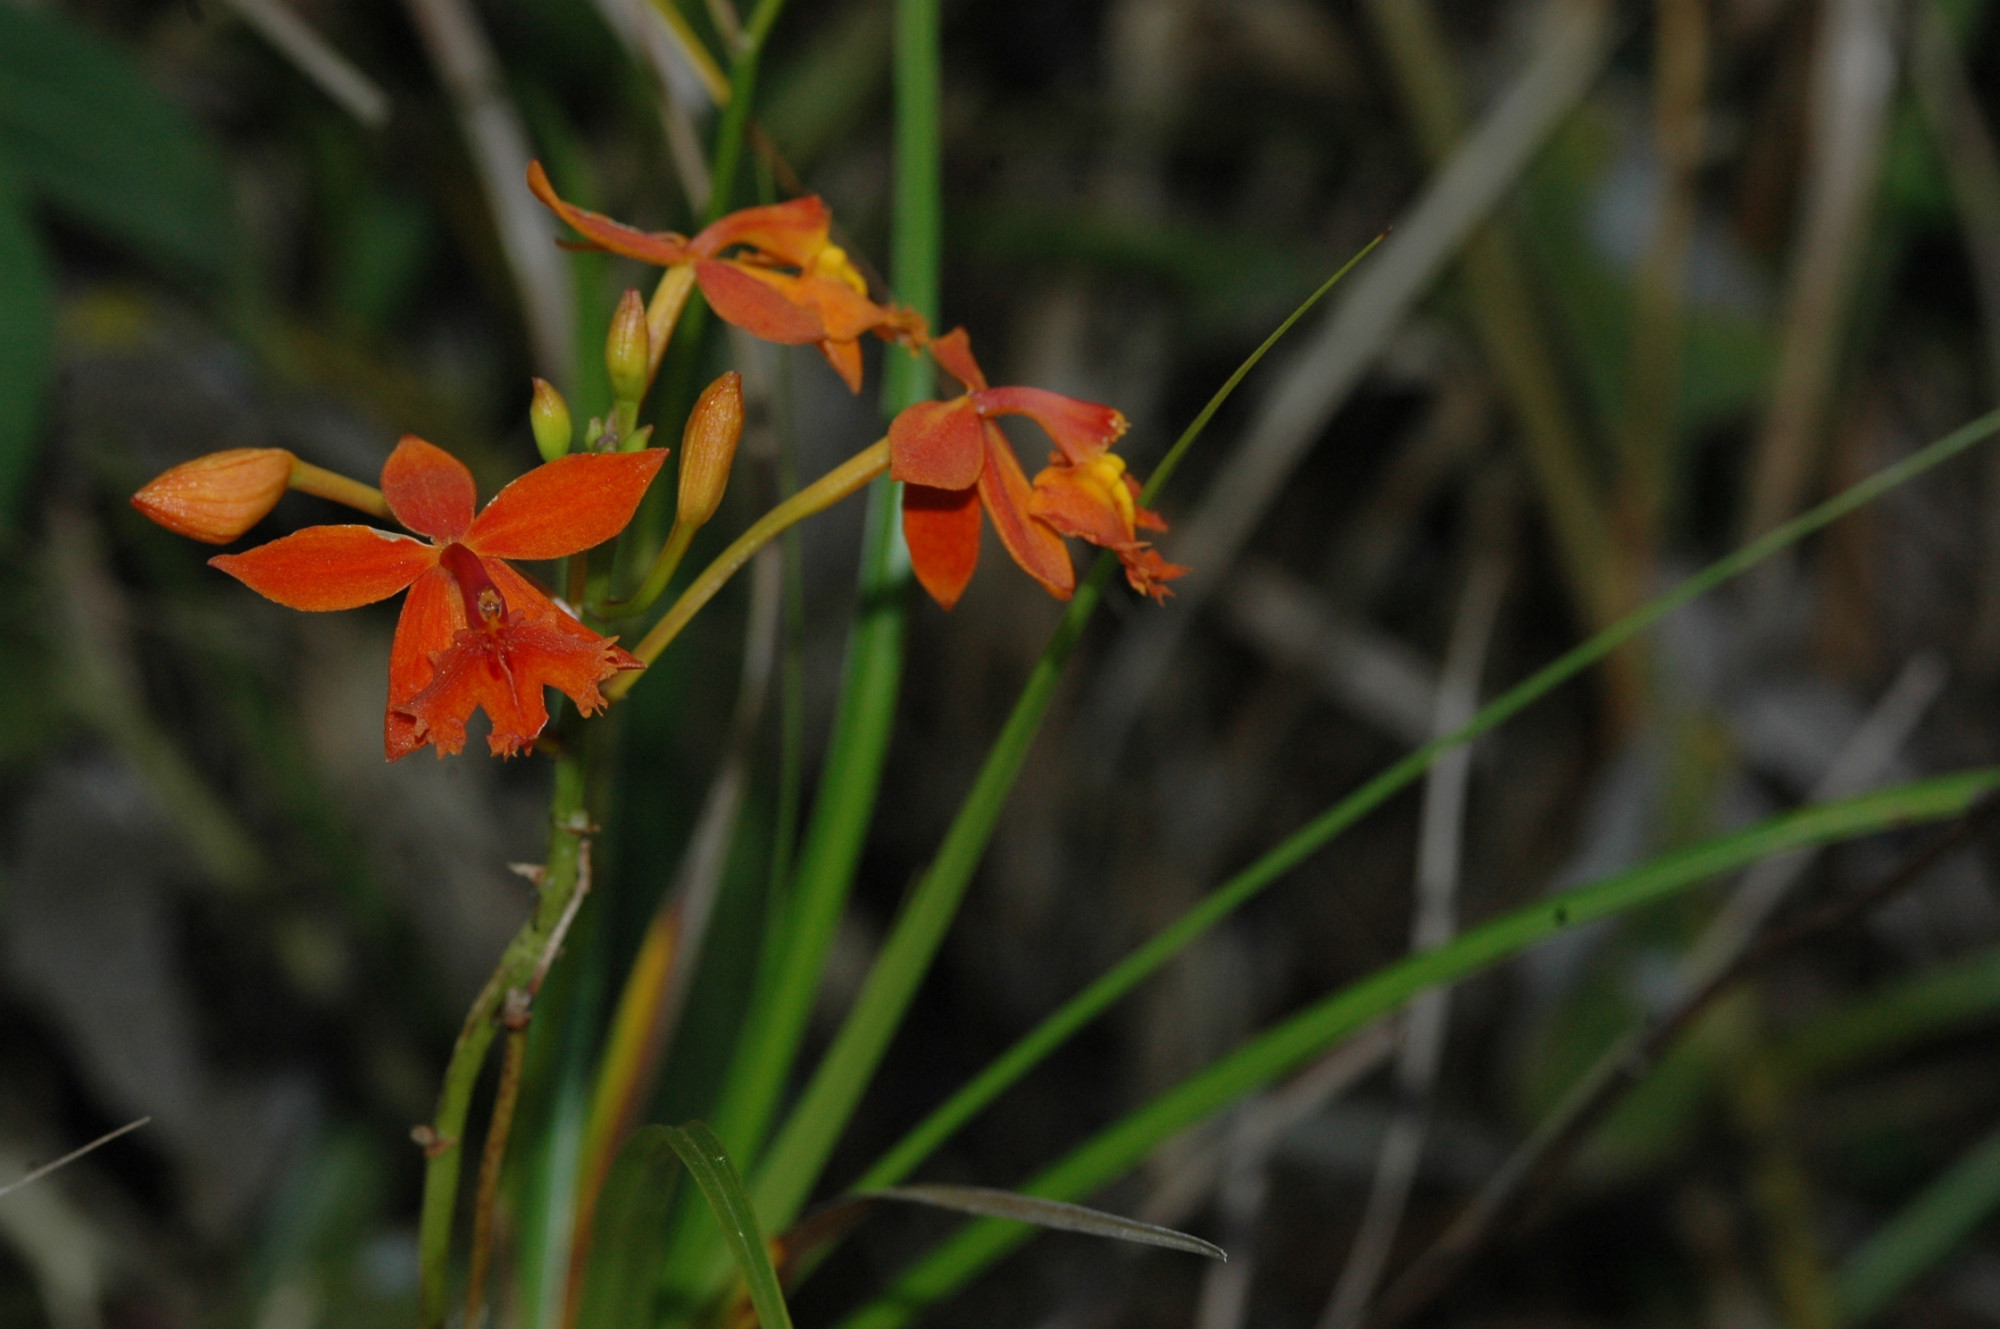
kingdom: Plantae
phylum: Tracheophyta
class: Liliopsida
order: Asparagales
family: Orchidaceae
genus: Epidendrum
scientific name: Epidendrum radicans
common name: Fire star orchid
